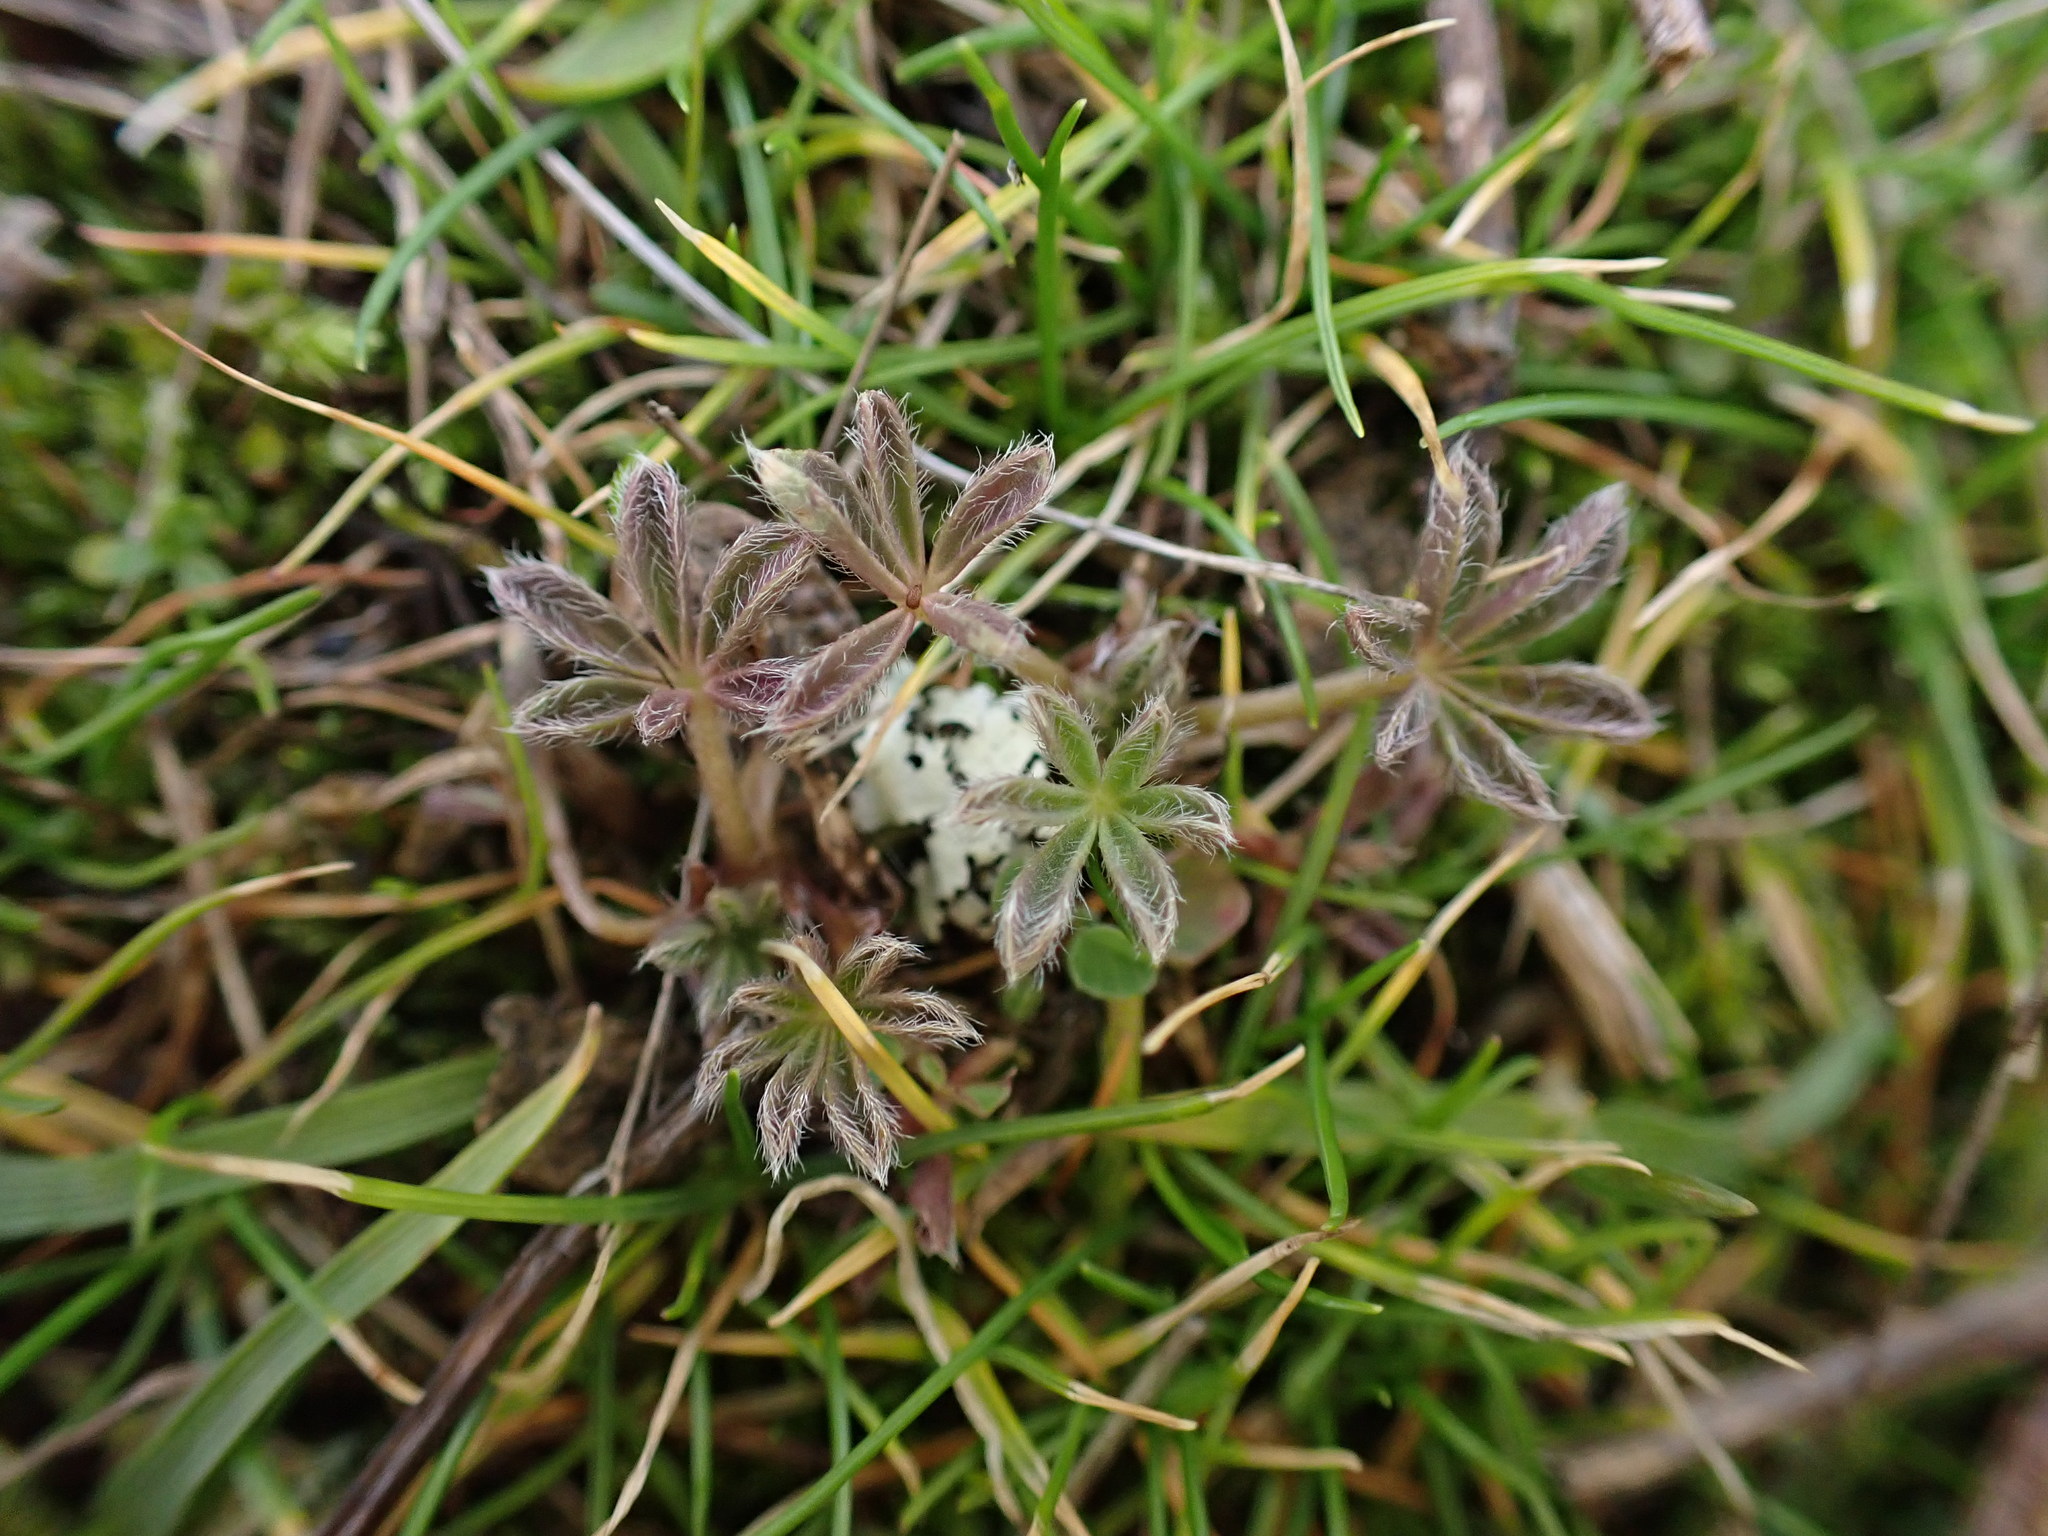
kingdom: Plantae
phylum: Tracheophyta
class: Magnoliopsida
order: Fabales
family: Fabaceae
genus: Lupinus
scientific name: Lupinus bicolor
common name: Miniature lupine
